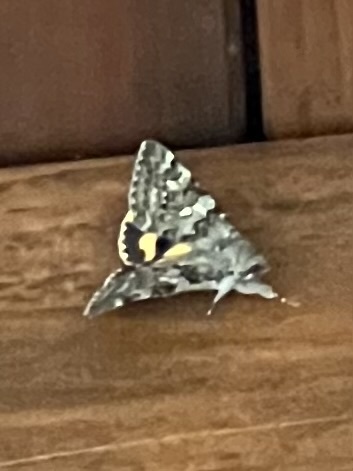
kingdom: Animalia
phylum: Arthropoda
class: Insecta
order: Lepidoptera
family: Erebidae
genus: Catocala
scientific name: Catocala nymphaea
